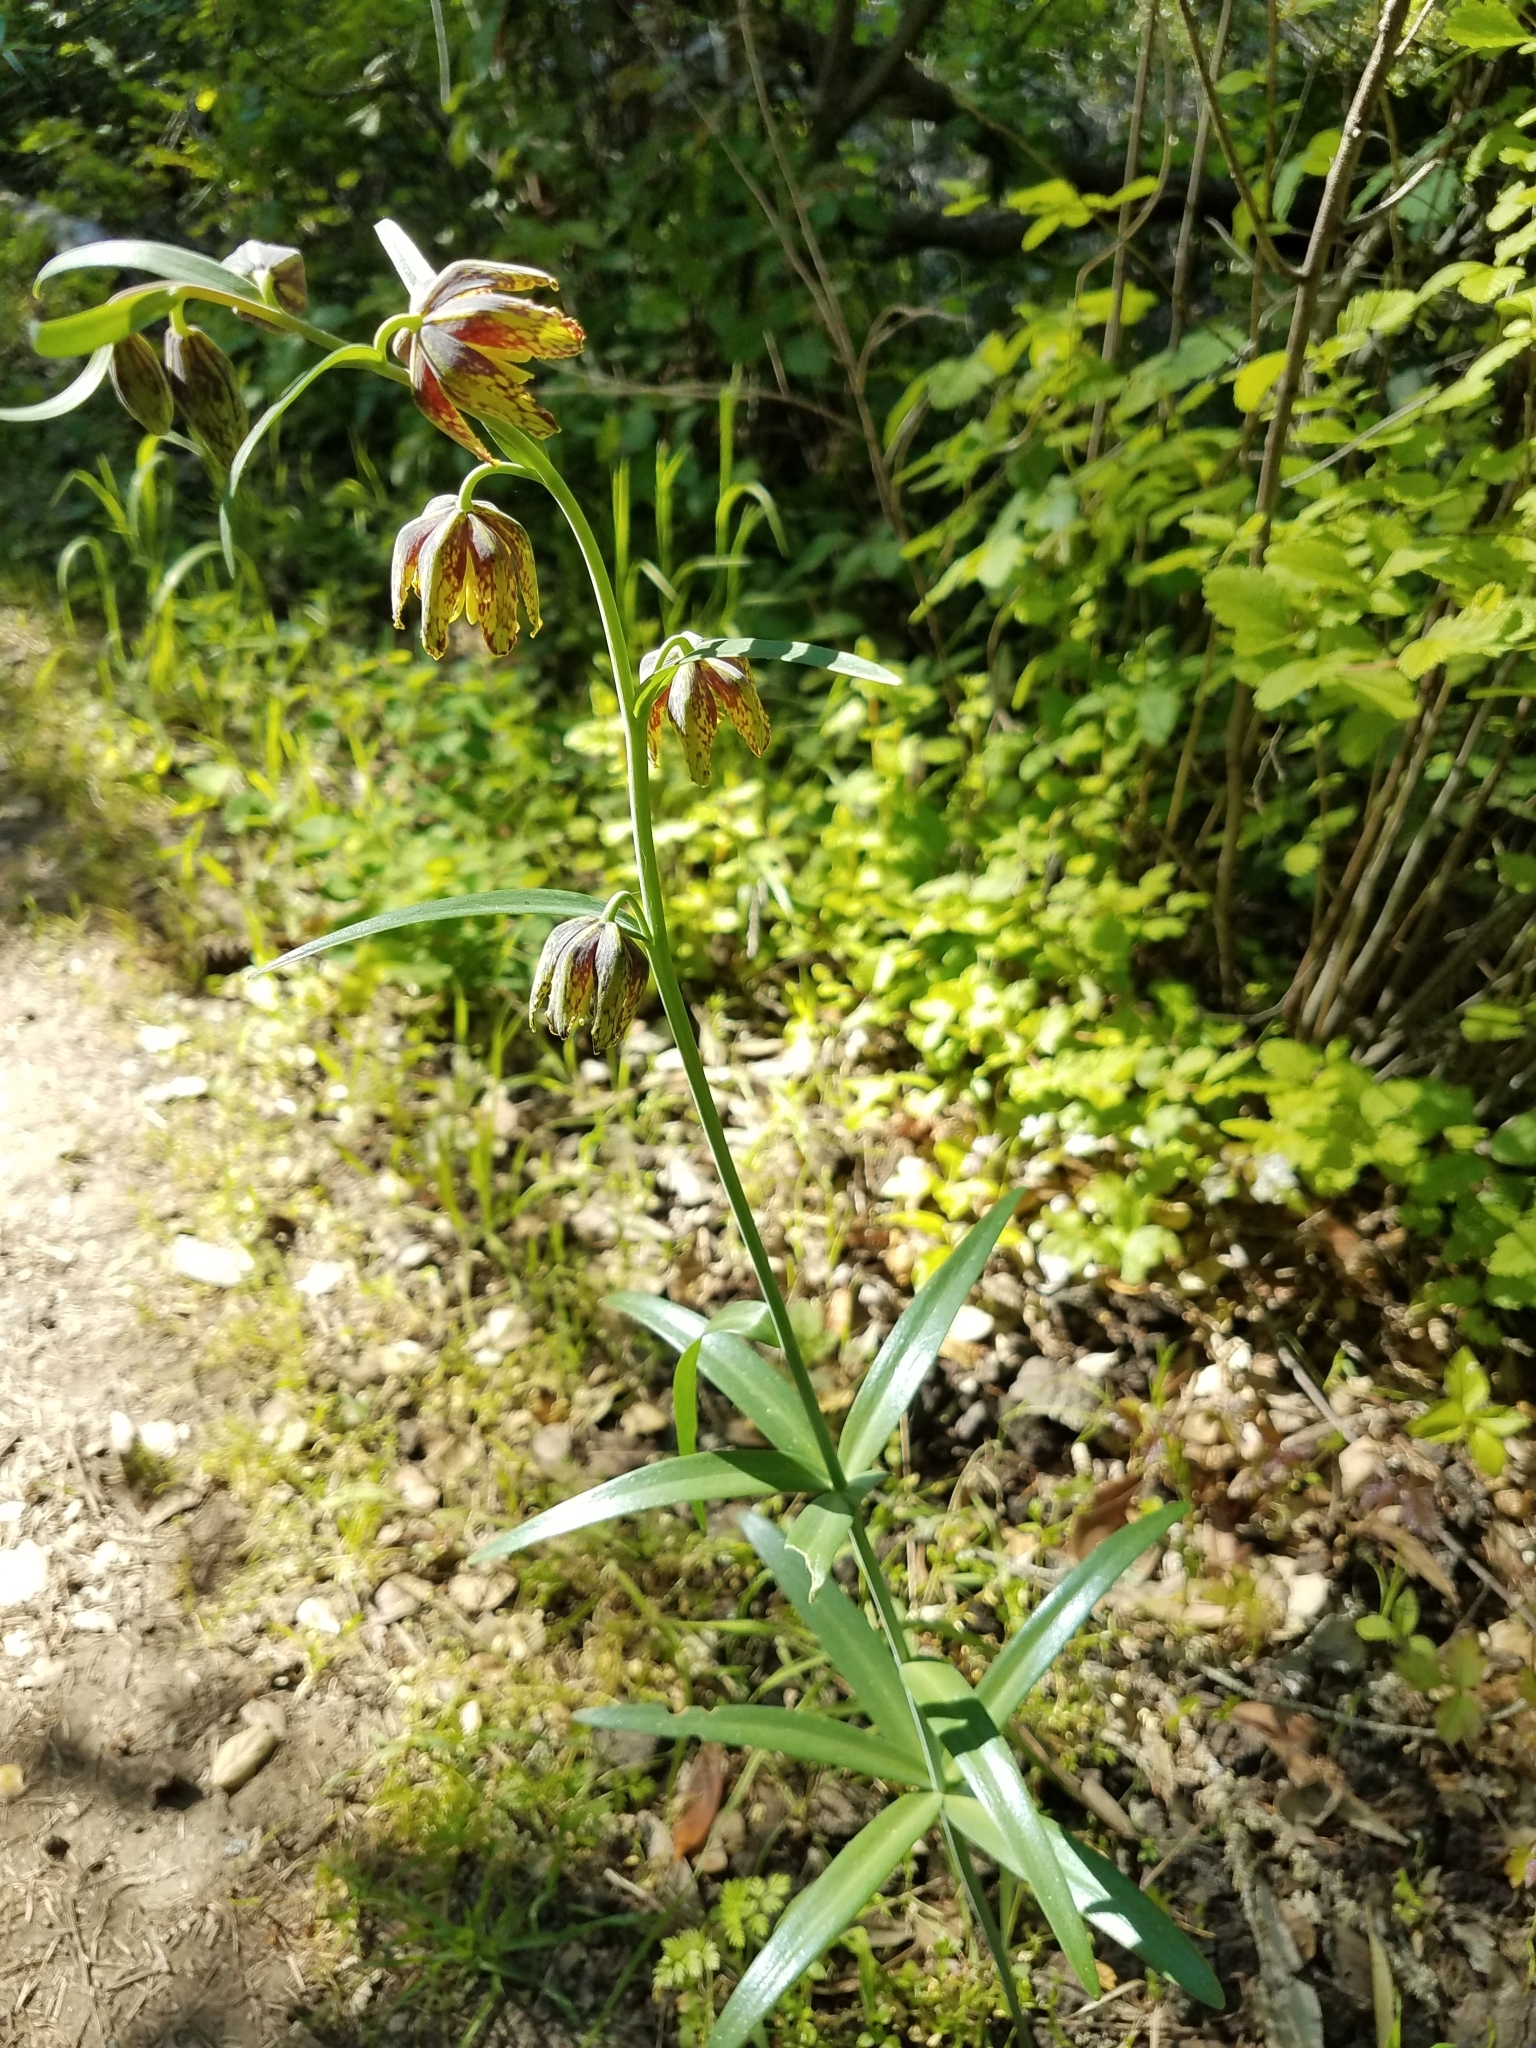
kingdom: Plantae
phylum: Tracheophyta
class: Liliopsida
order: Liliales
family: Liliaceae
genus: Fritillaria
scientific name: Fritillaria affinis
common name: Ojai fritillary
